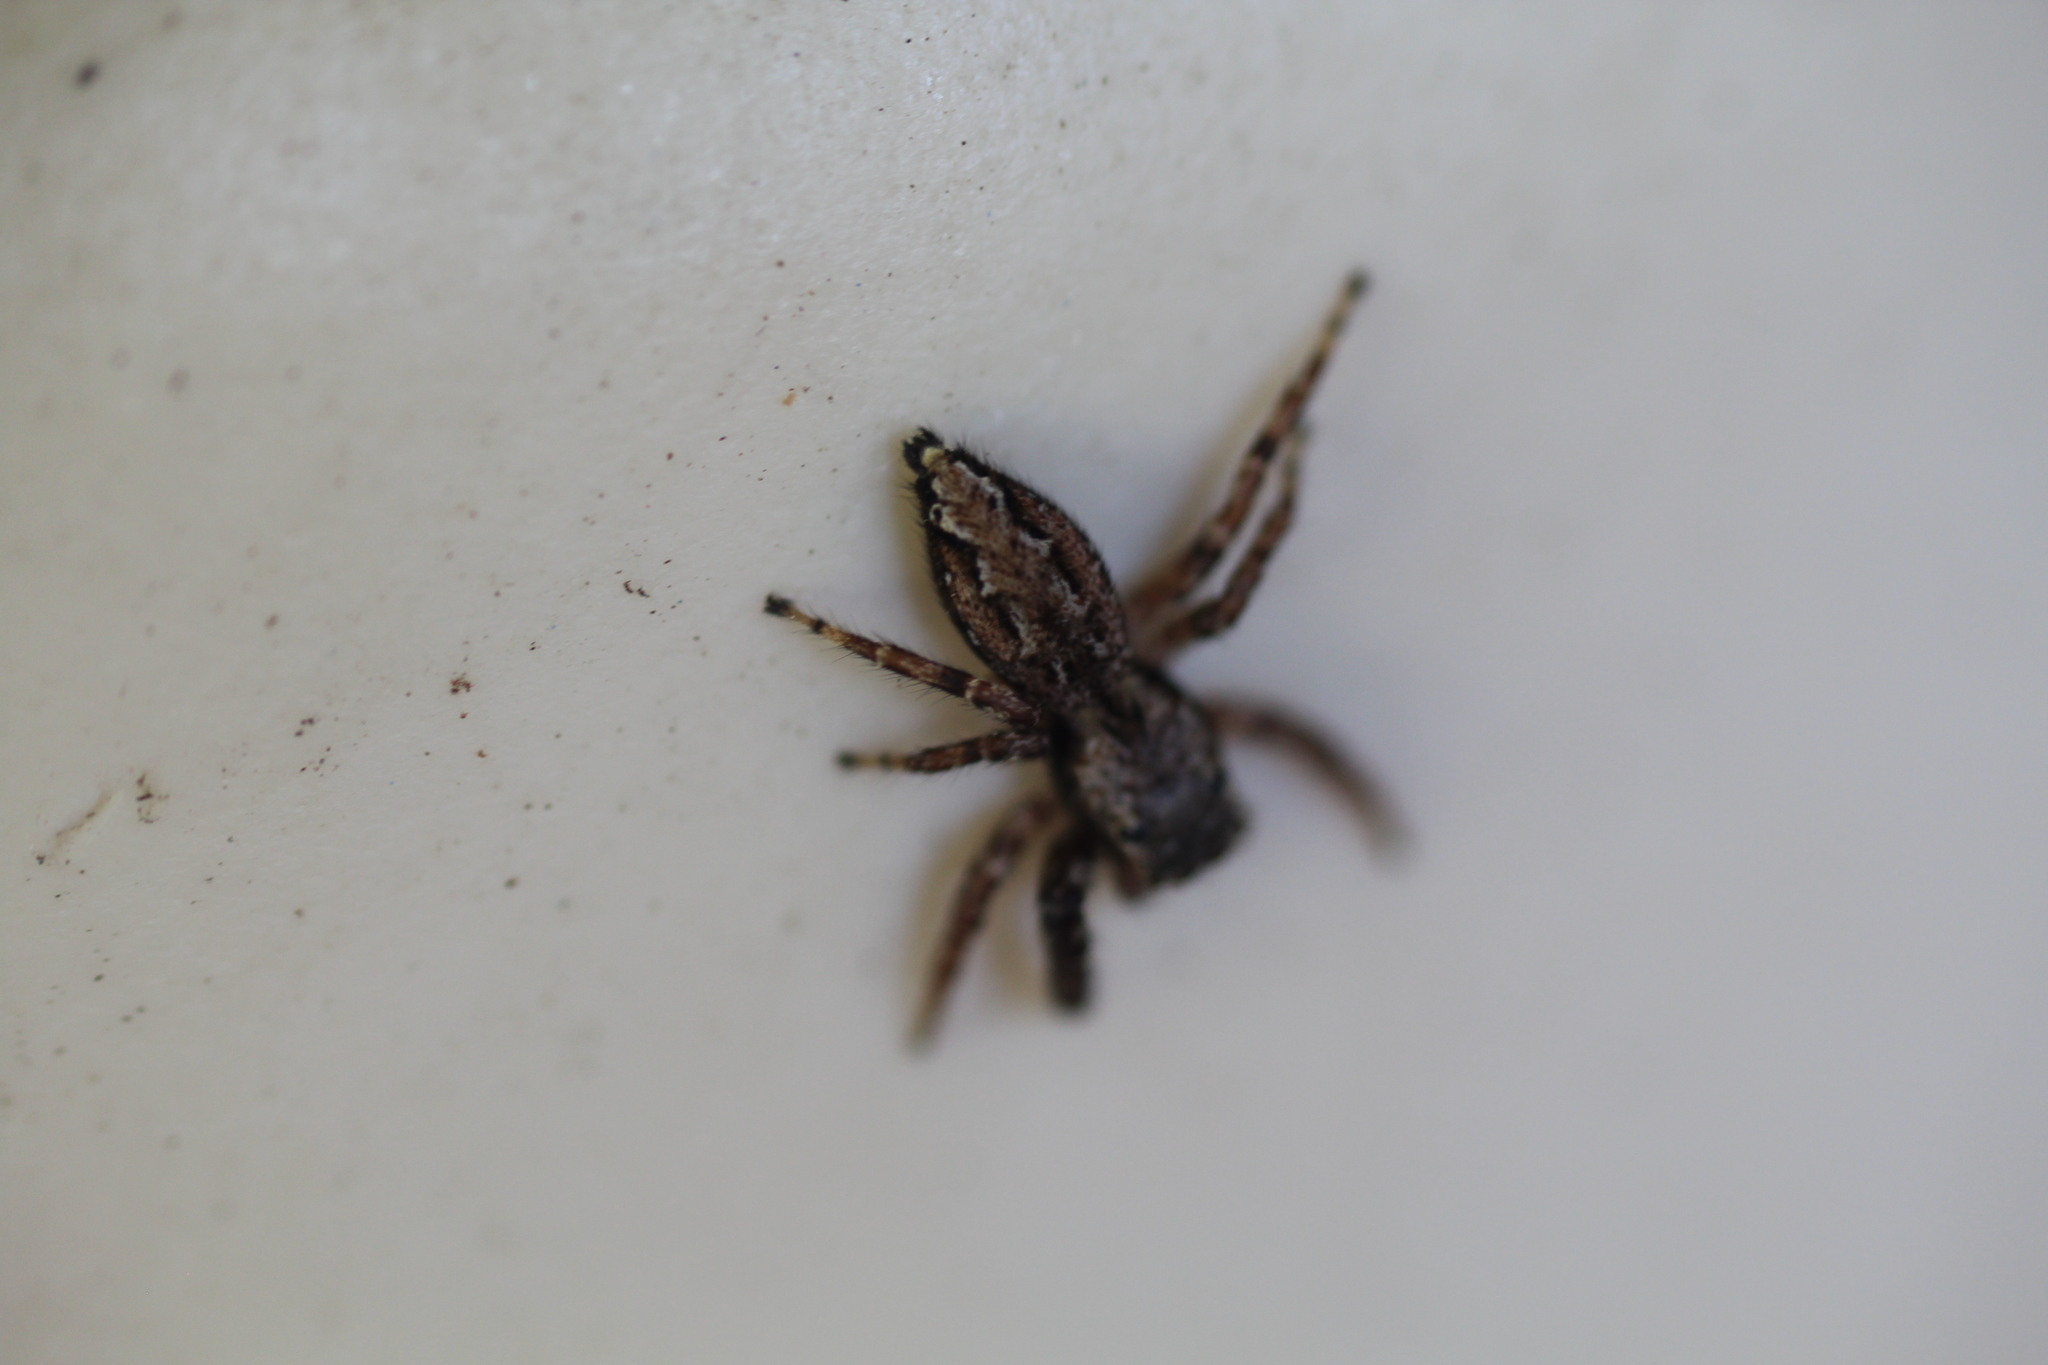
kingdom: Animalia
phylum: Arthropoda
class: Arachnida
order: Araneae
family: Salticidae
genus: Marpissa
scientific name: Marpissa muscosa
